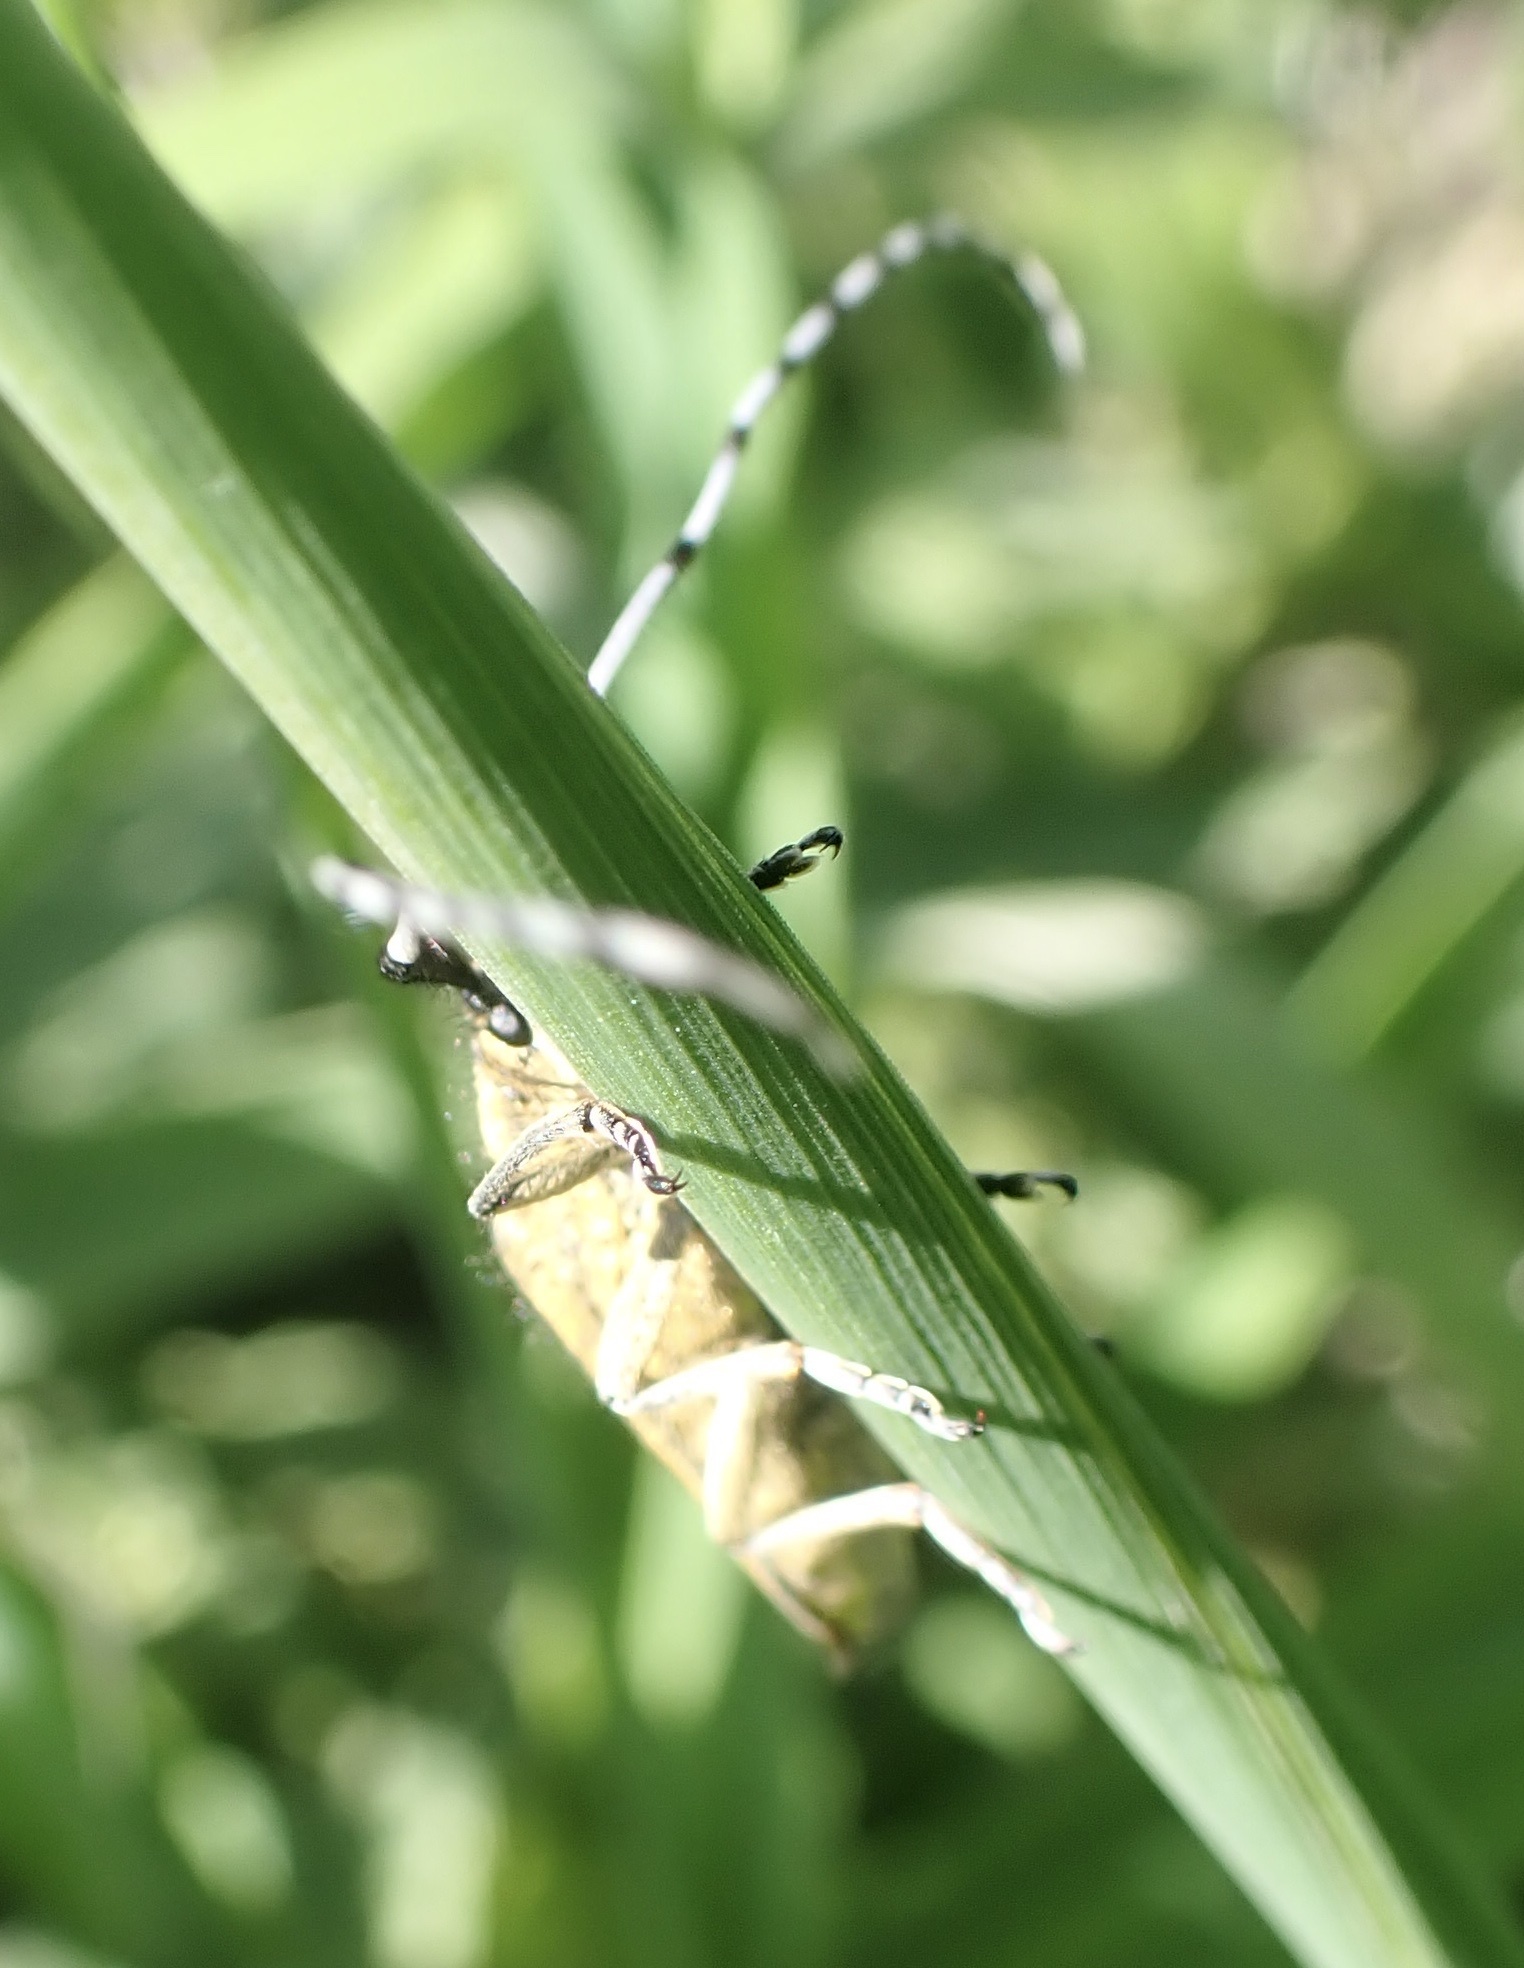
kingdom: Animalia
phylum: Arthropoda
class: Insecta
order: Coleoptera
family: Cerambycidae
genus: Agapanthia
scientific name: Agapanthia villosoviridescens
